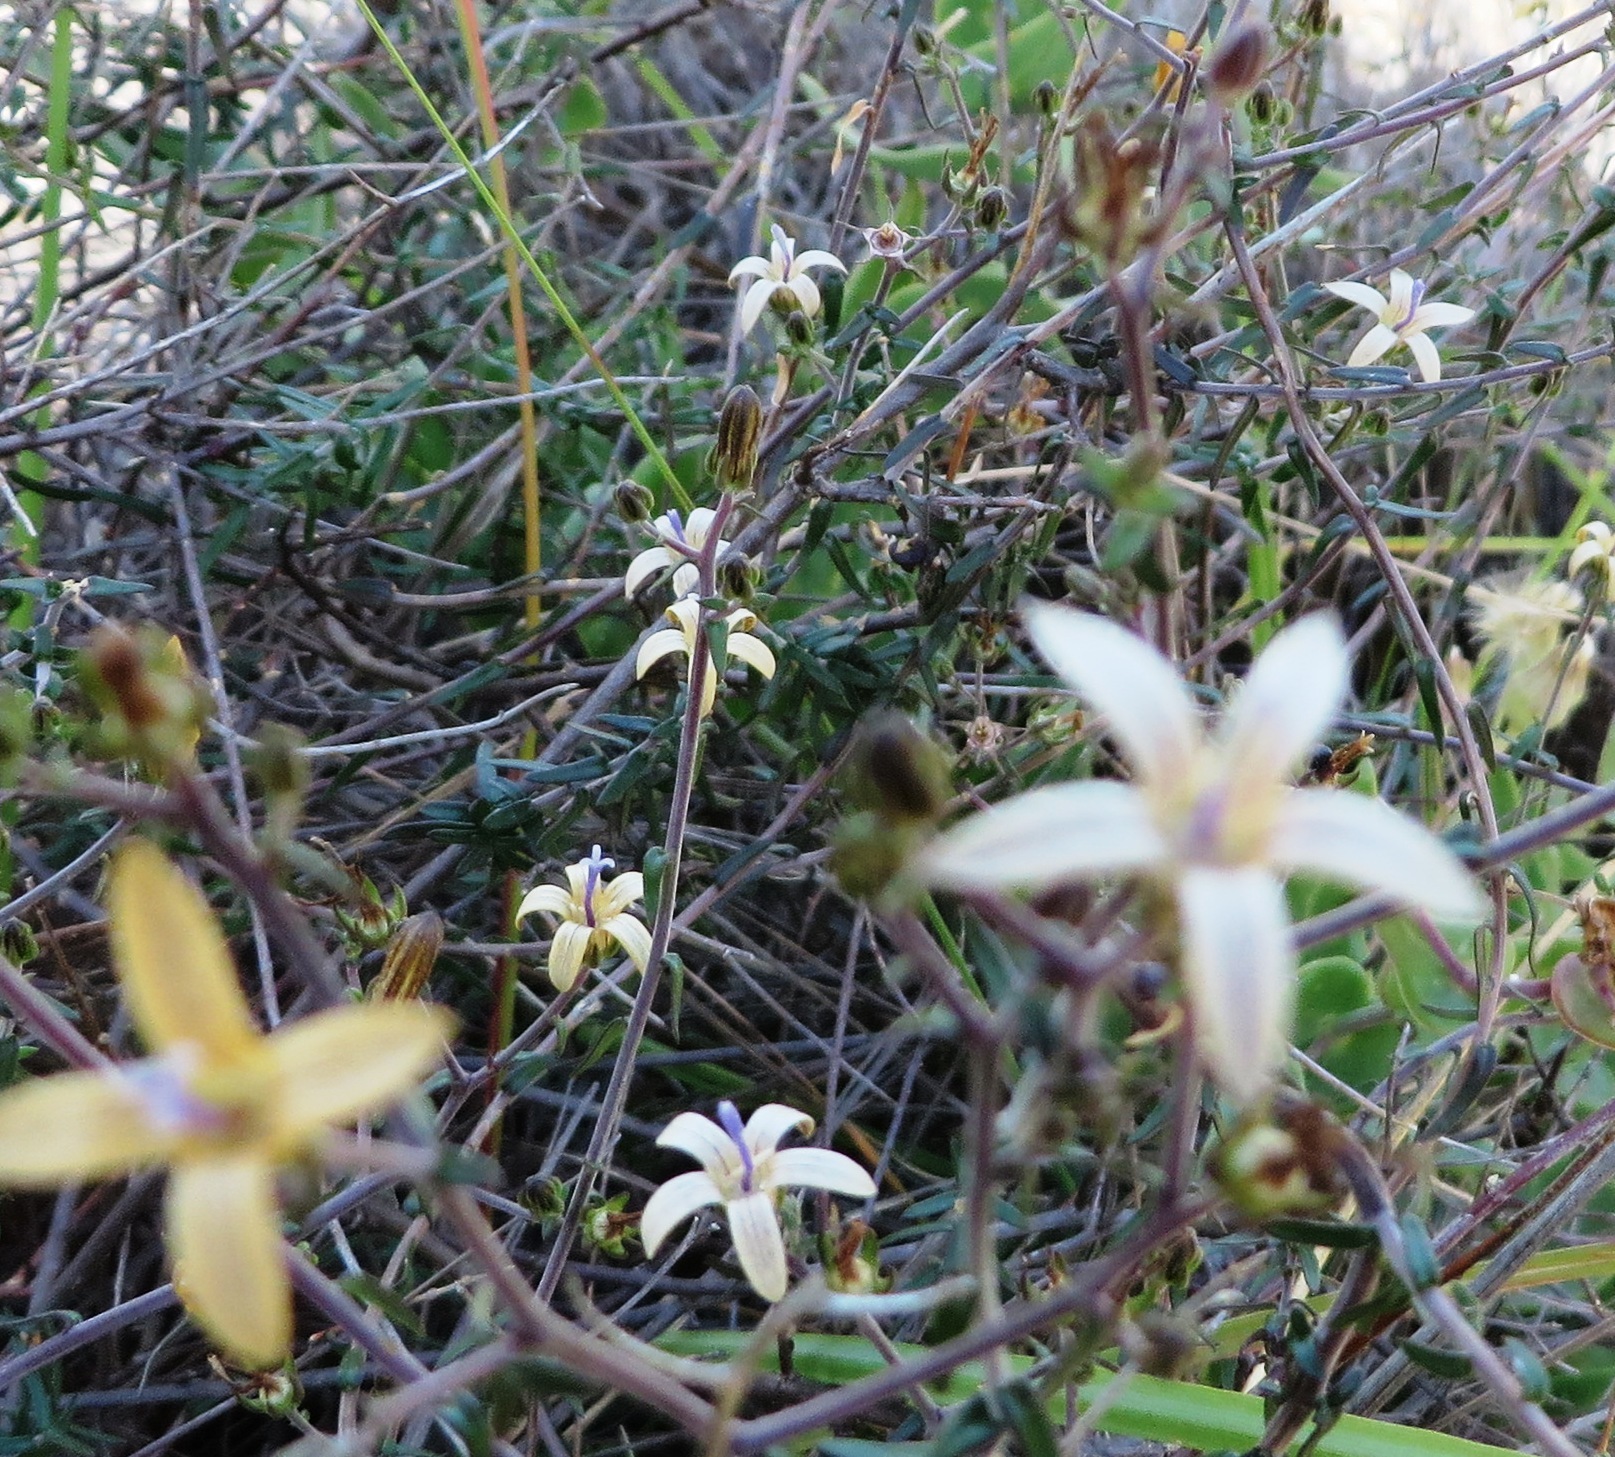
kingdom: Plantae
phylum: Tracheophyta
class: Magnoliopsida
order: Asterales
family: Campanulaceae
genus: Wahlenbergia
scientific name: Wahlenbergia thunbergiana
